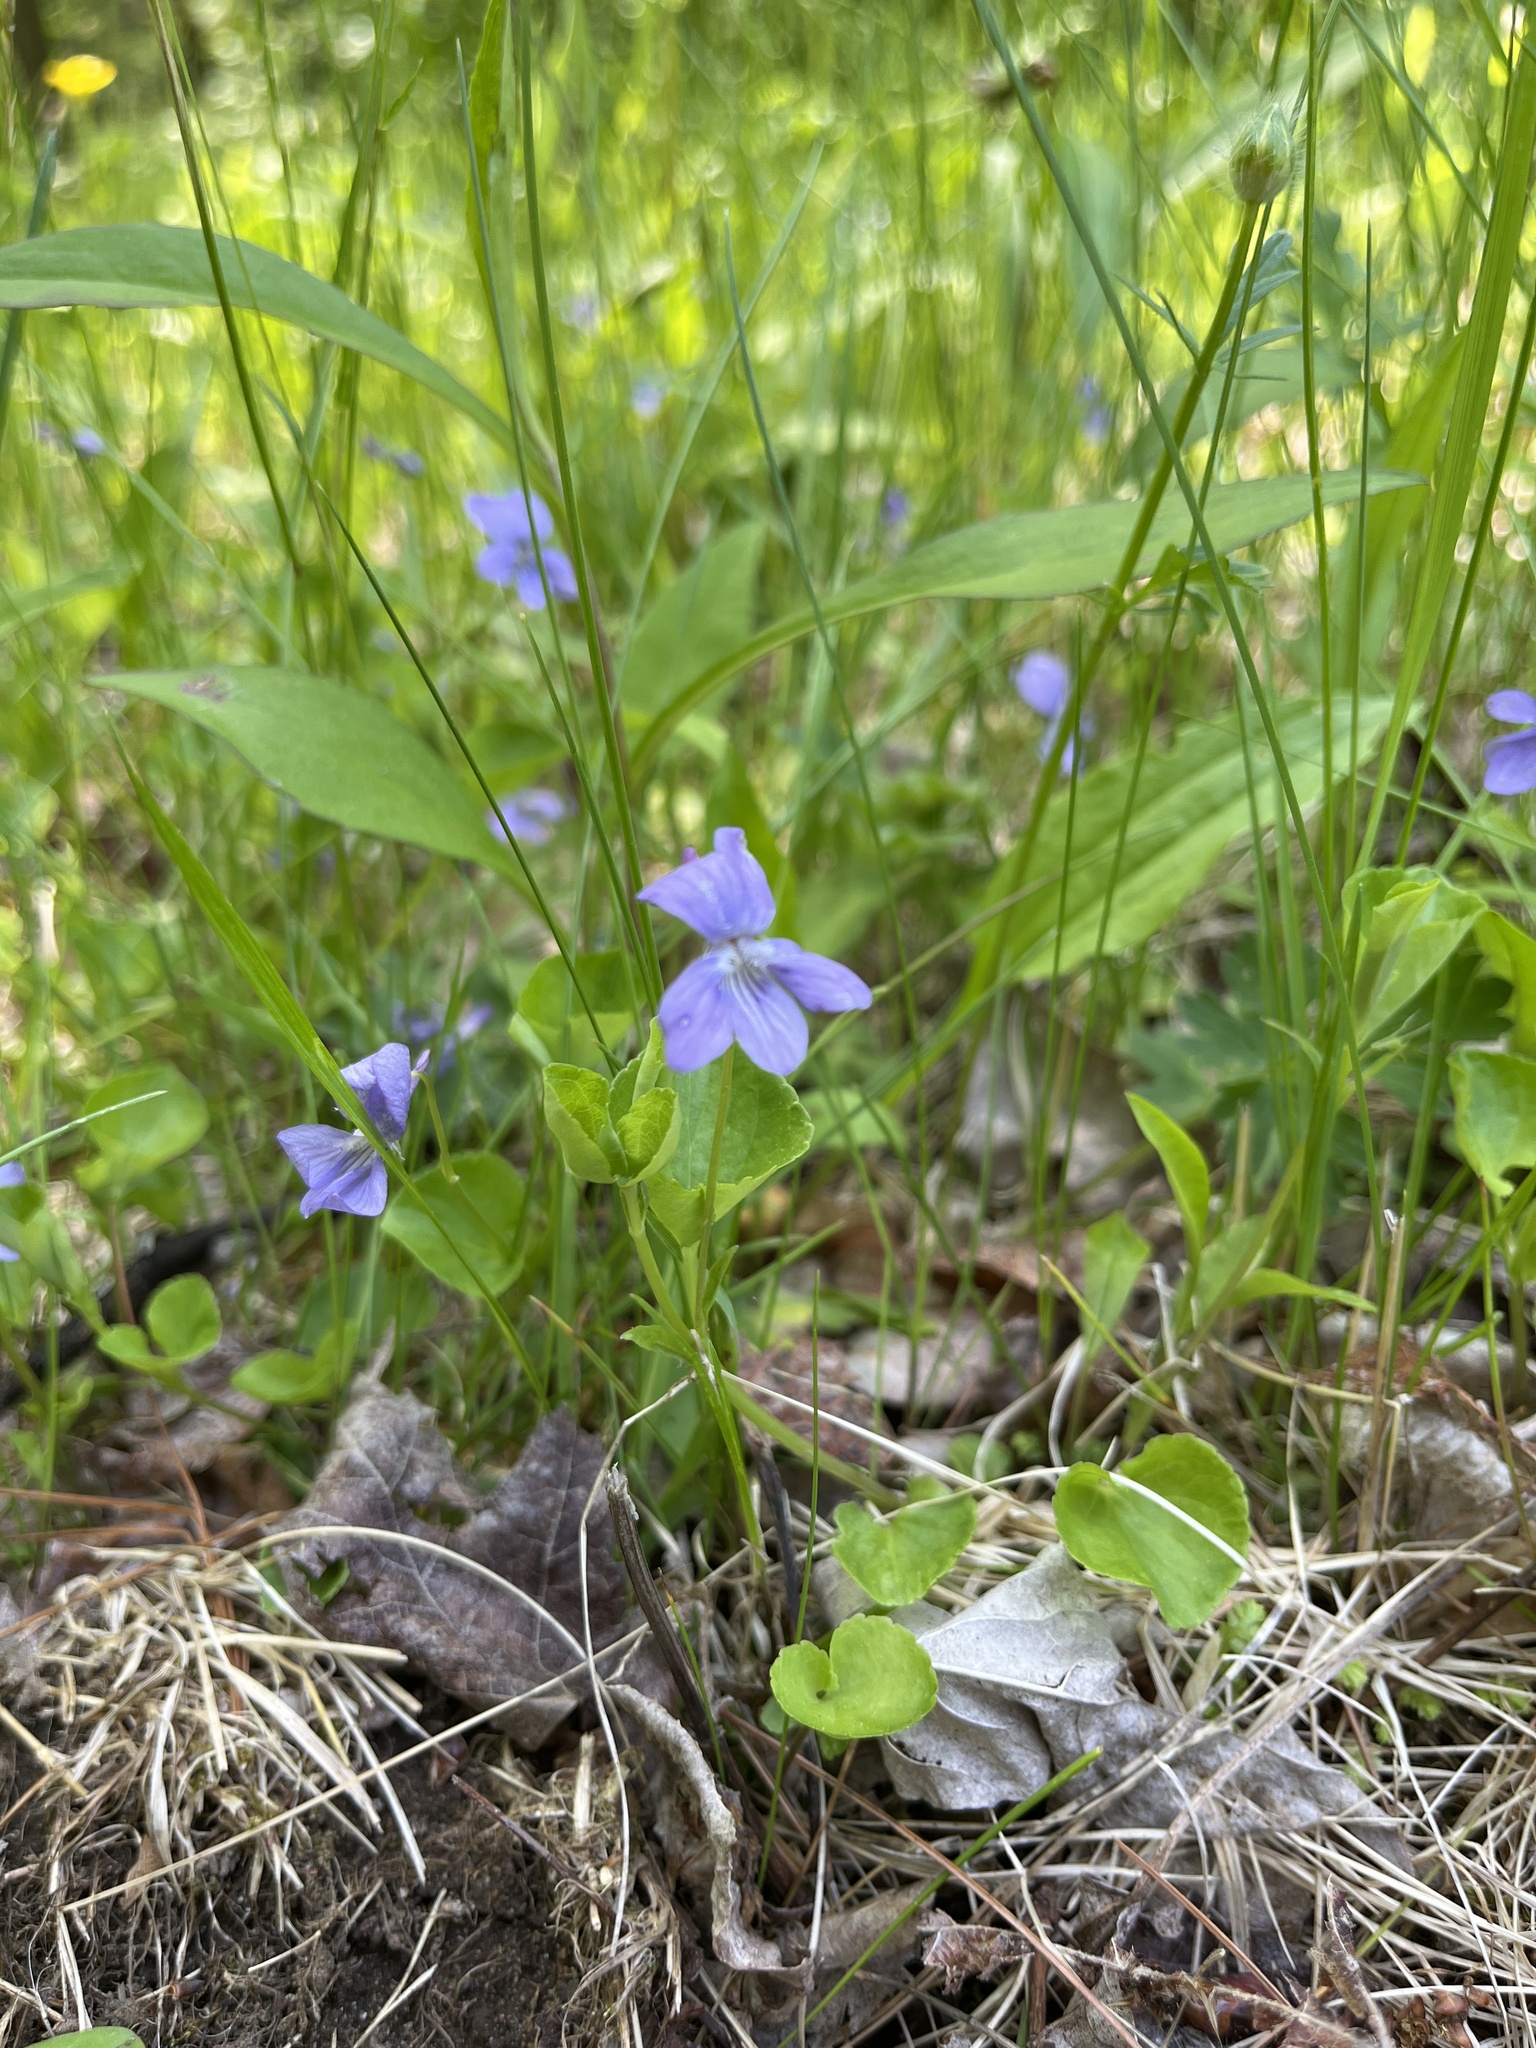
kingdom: Plantae
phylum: Tracheophyta
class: Magnoliopsida
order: Malpighiales
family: Violaceae
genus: Viola
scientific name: Viola labradorica
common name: Labrador violet
